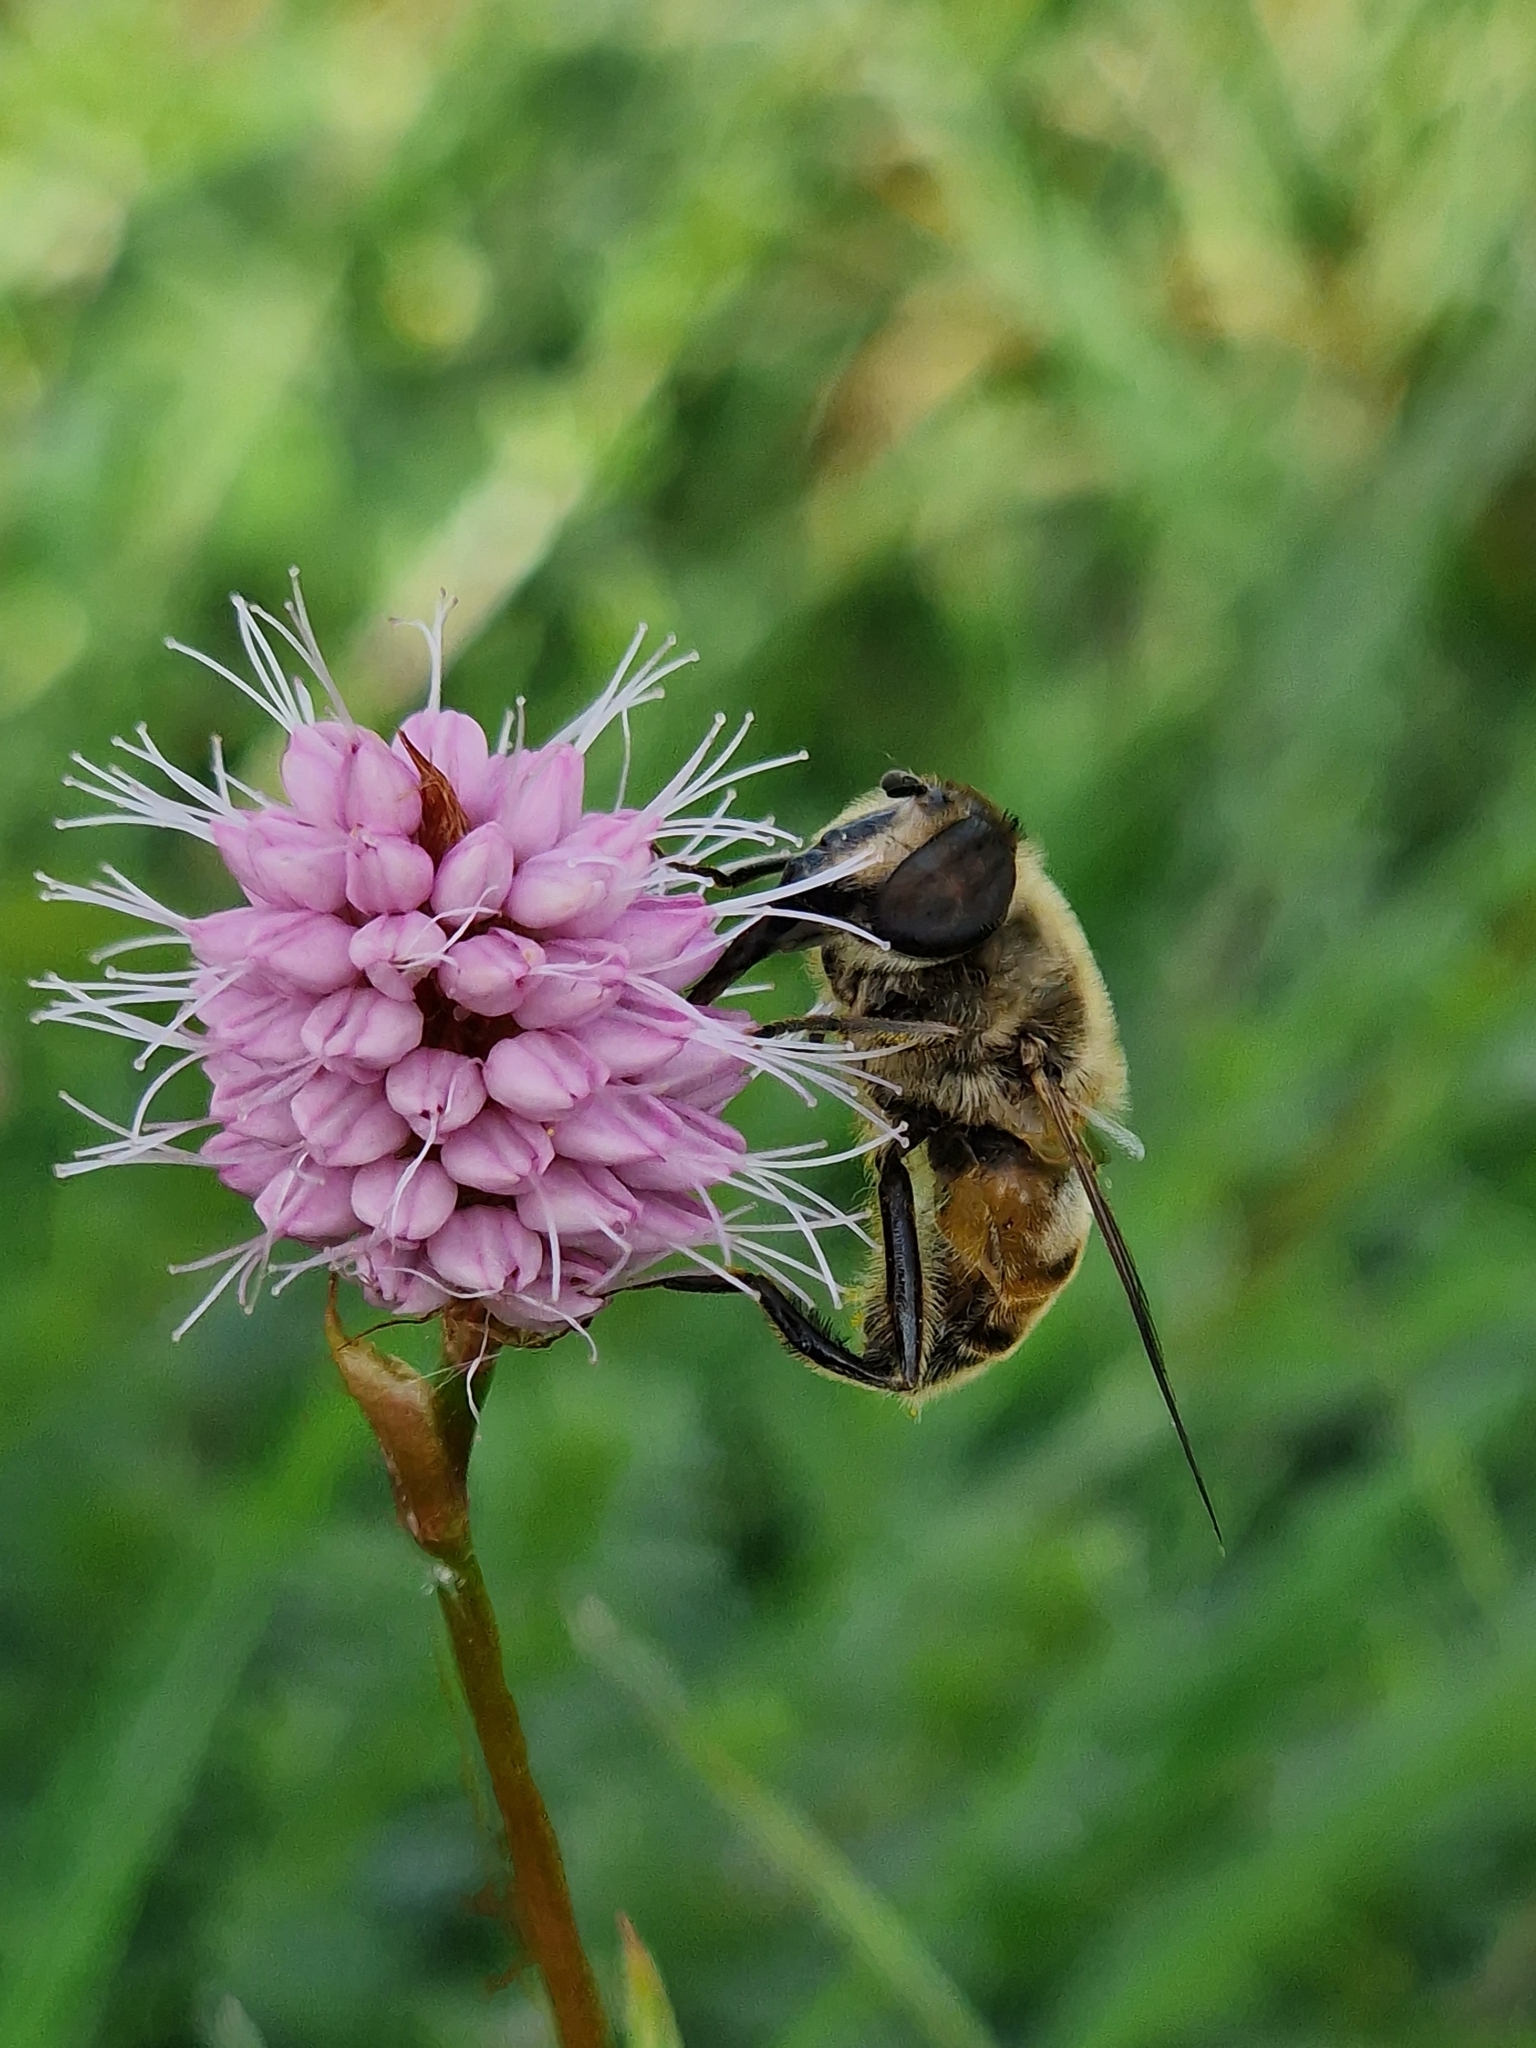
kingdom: Animalia
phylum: Arthropoda
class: Insecta
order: Diptera
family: Syrphidae
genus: Eristalis
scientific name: Eristalis tenax
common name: Drone fly
